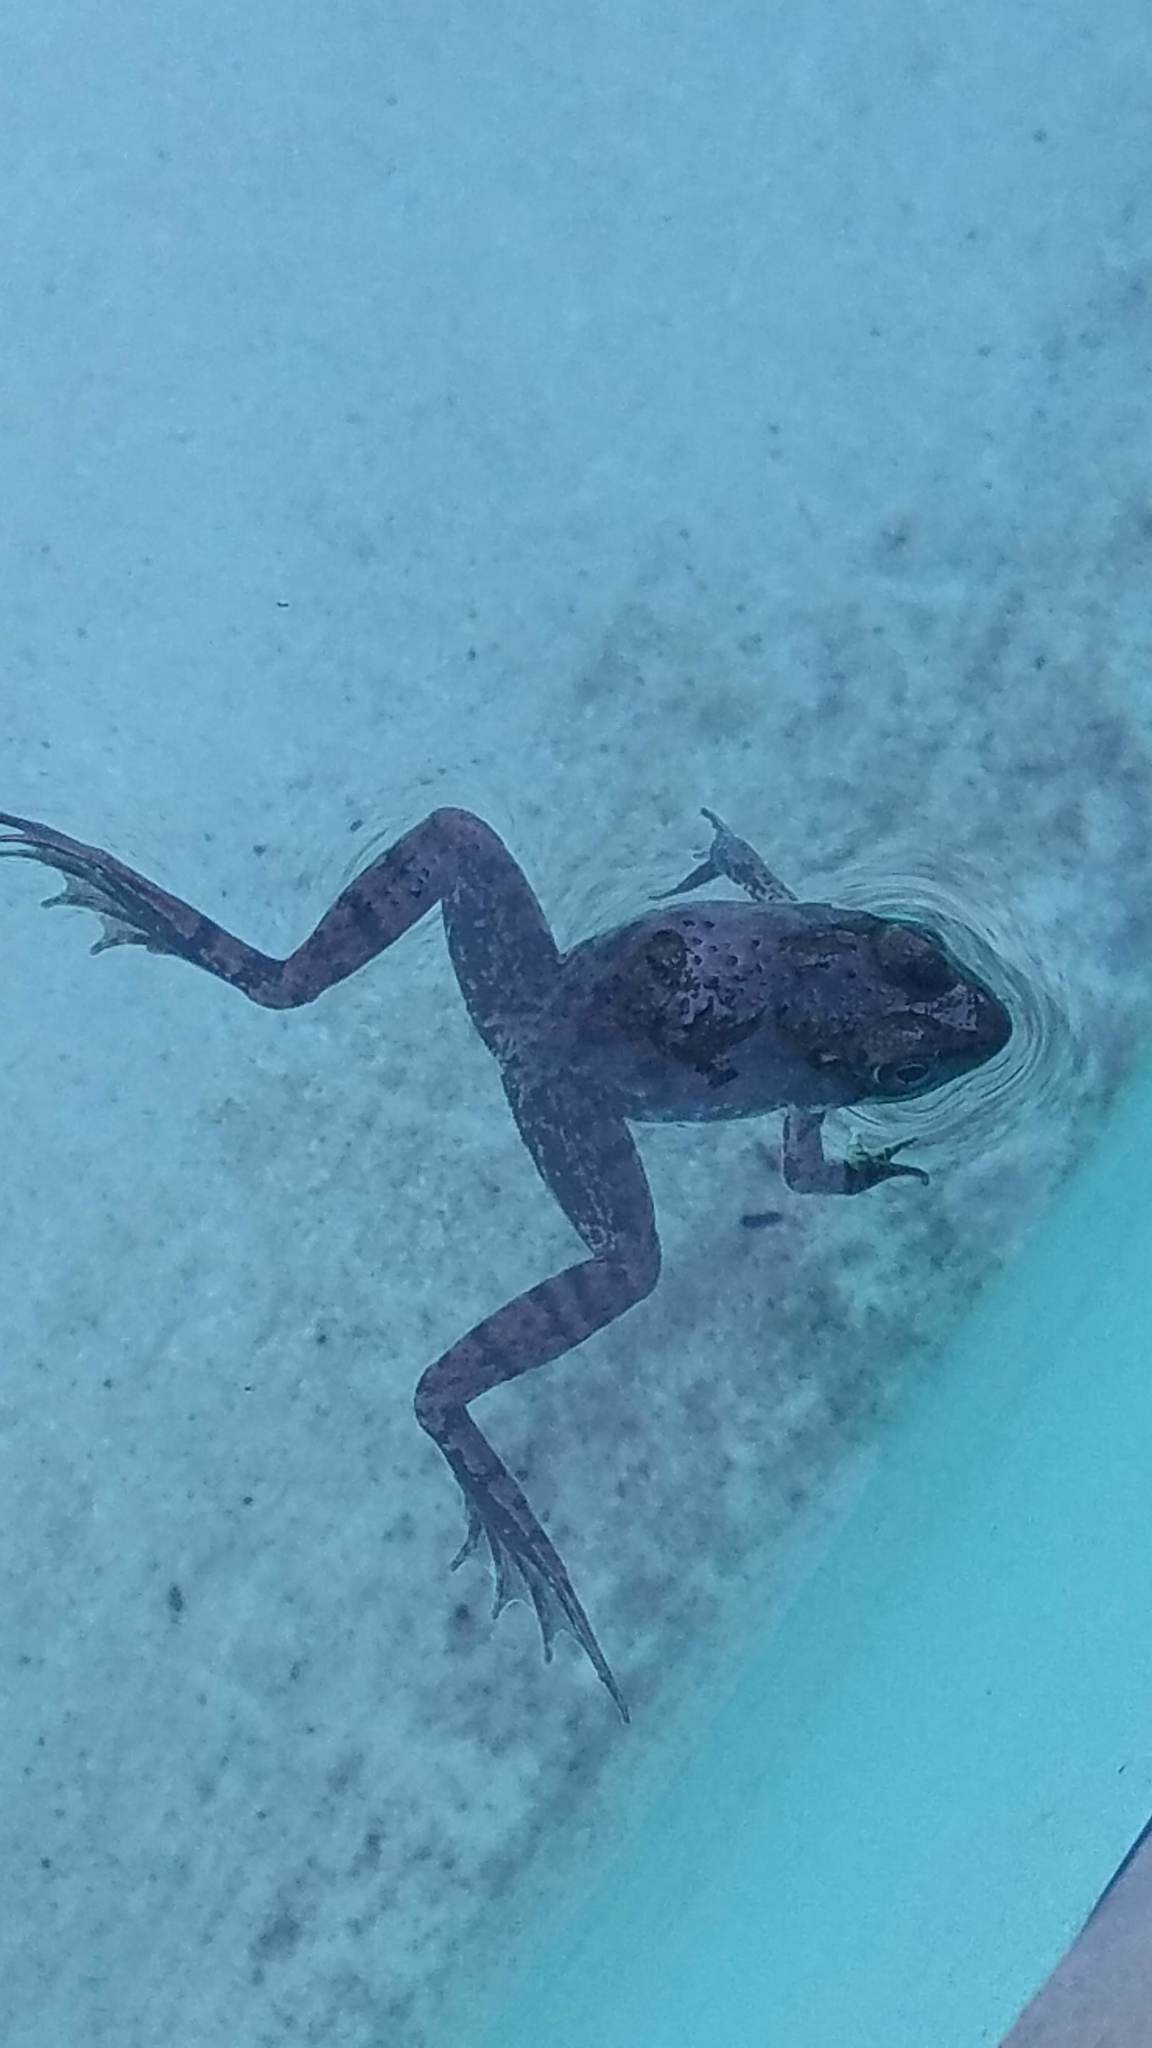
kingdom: Animalia
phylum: Chordata
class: Amphibia
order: Anura
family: Ranidae
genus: Lithobates
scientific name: Lithobates clamitans
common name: Green frog
